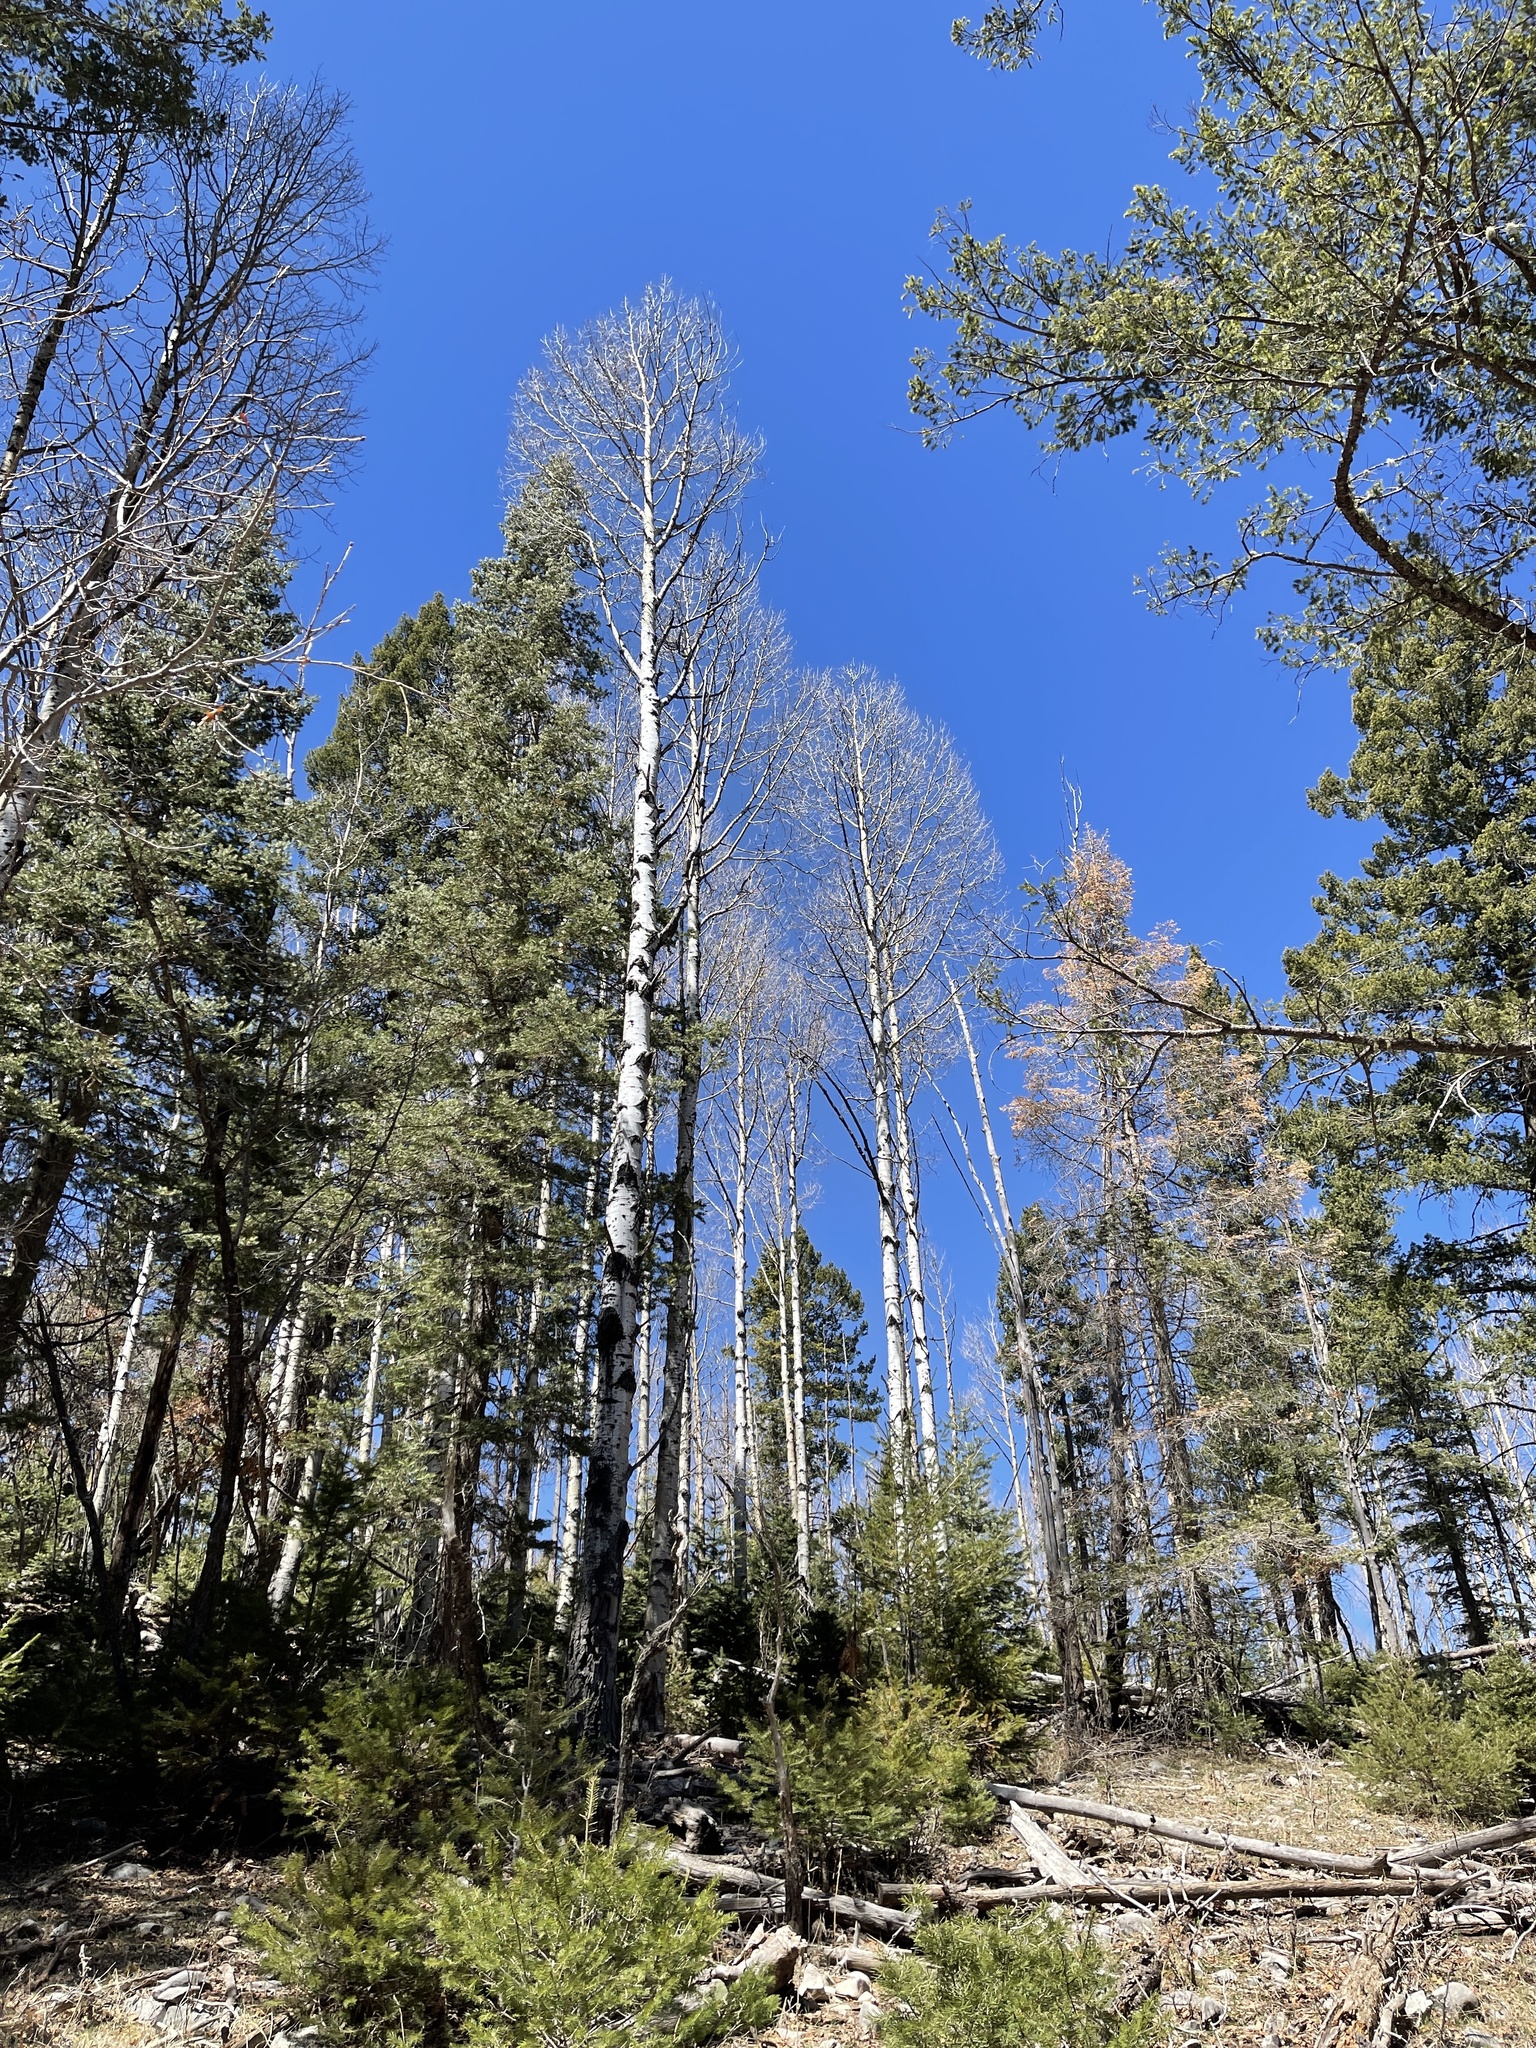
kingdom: Plantae
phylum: Tracheophyta
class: Magnoliopsida
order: Malpighiales
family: Salicaceae
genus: Populus
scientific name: Populus tremuloides
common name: Quaking aspen
